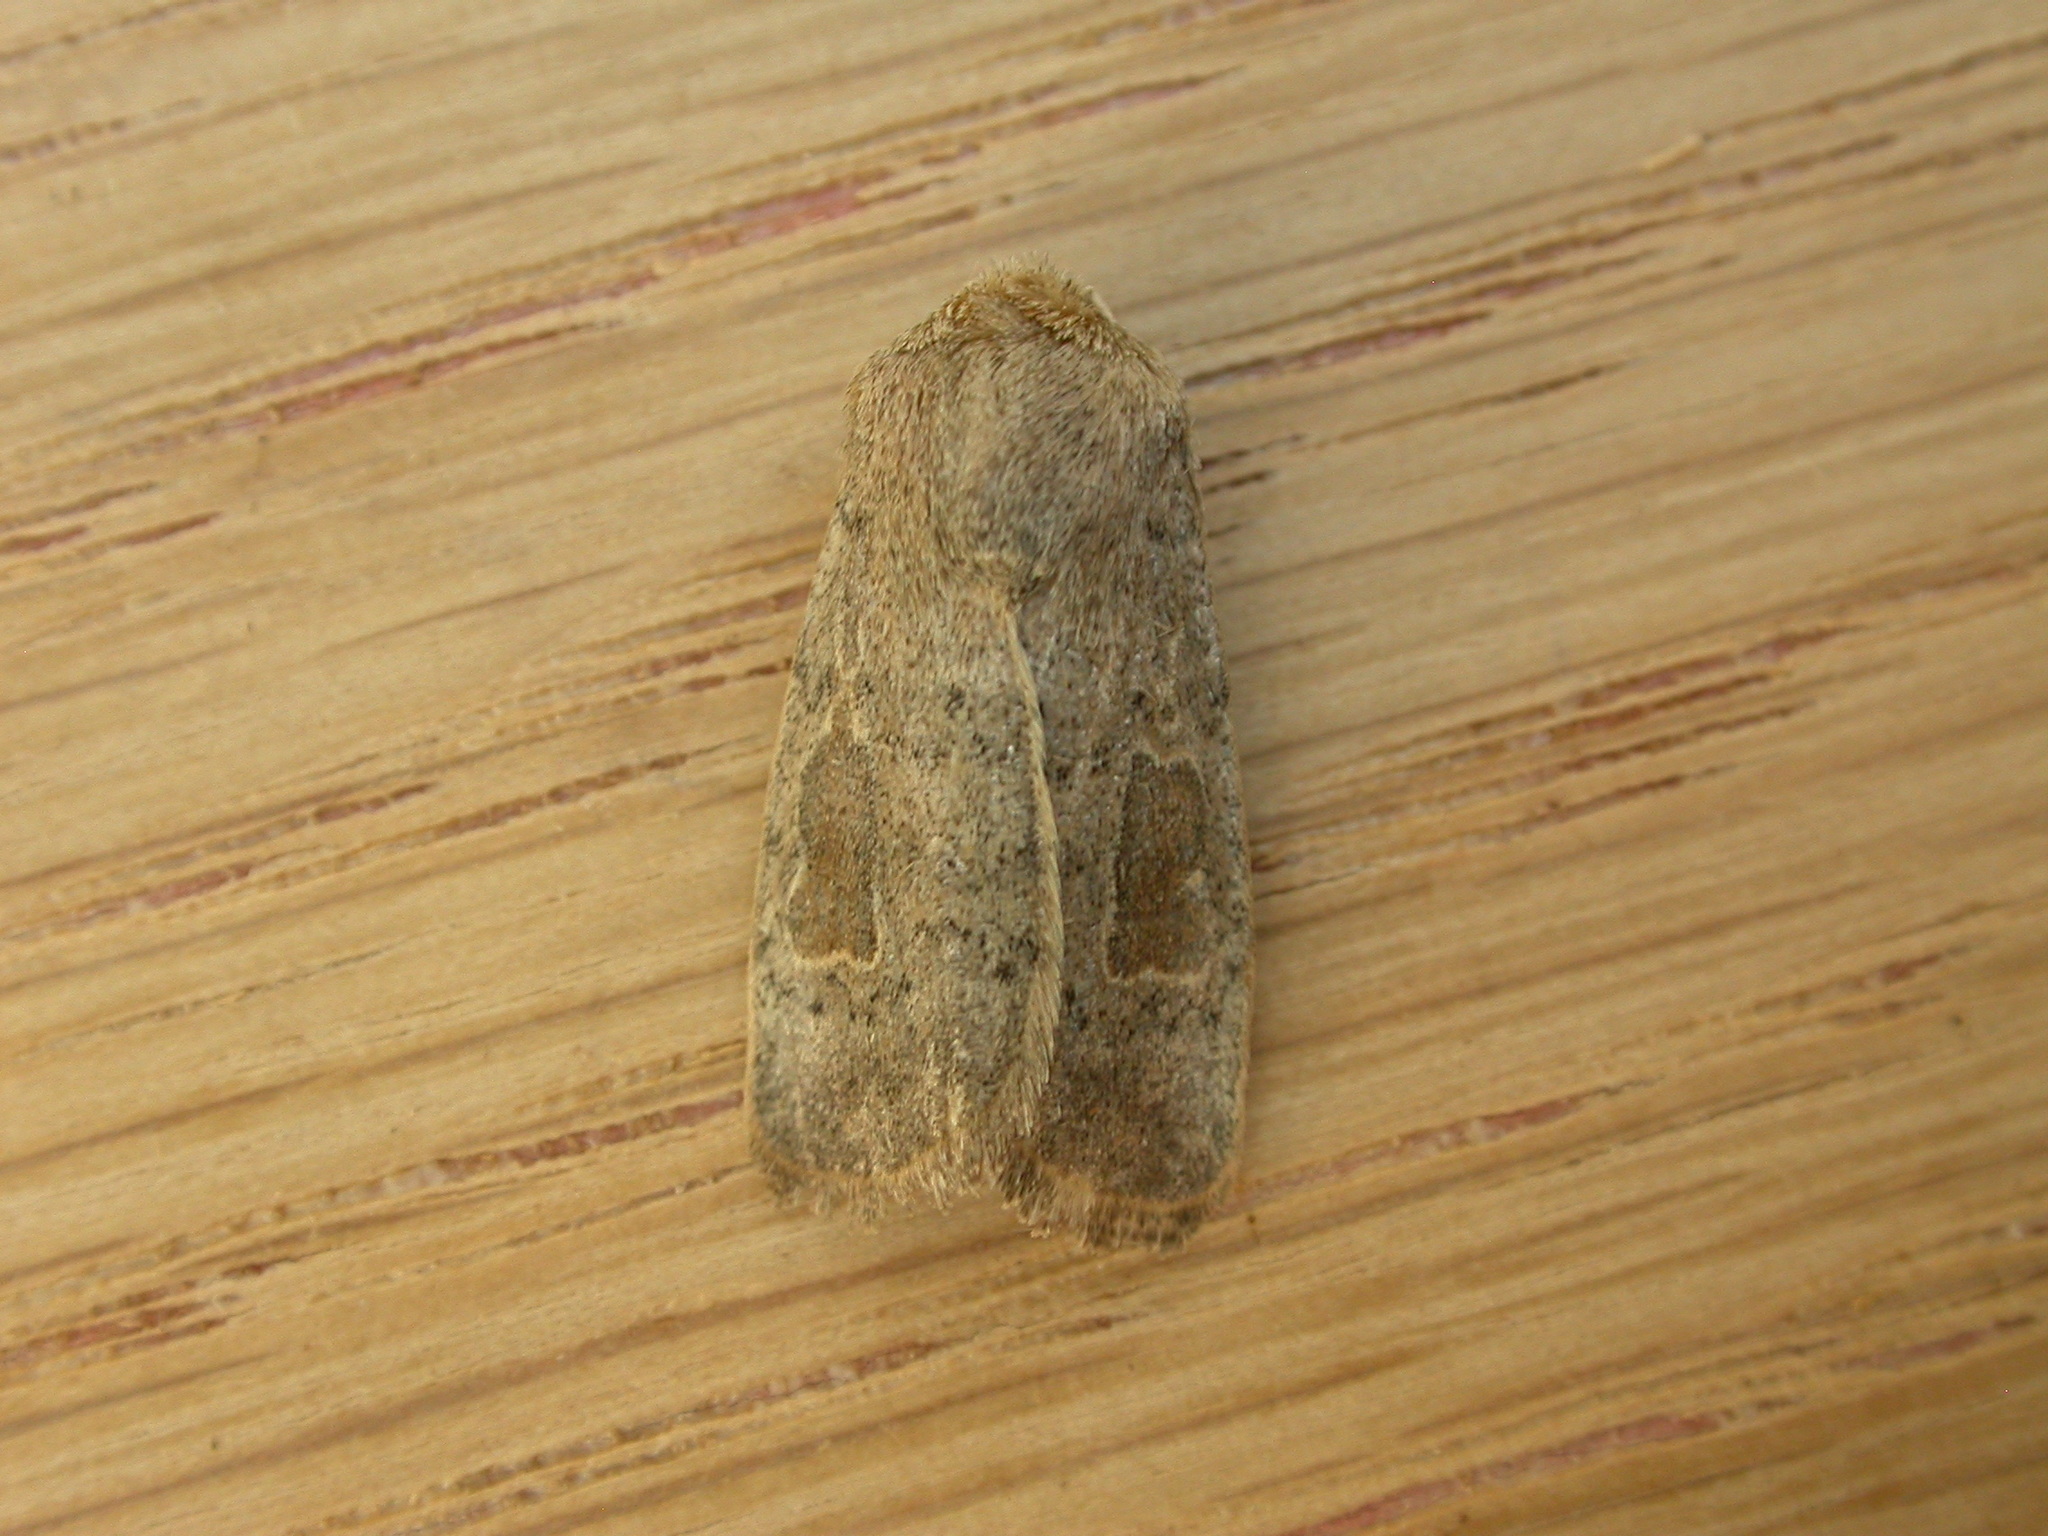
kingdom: Animalia
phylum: Arthropoda
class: Insecta
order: Lepidoptera
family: Noctuidae
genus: Hoplodrina
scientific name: Hoplodrina ambigua
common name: Vine's rustic
